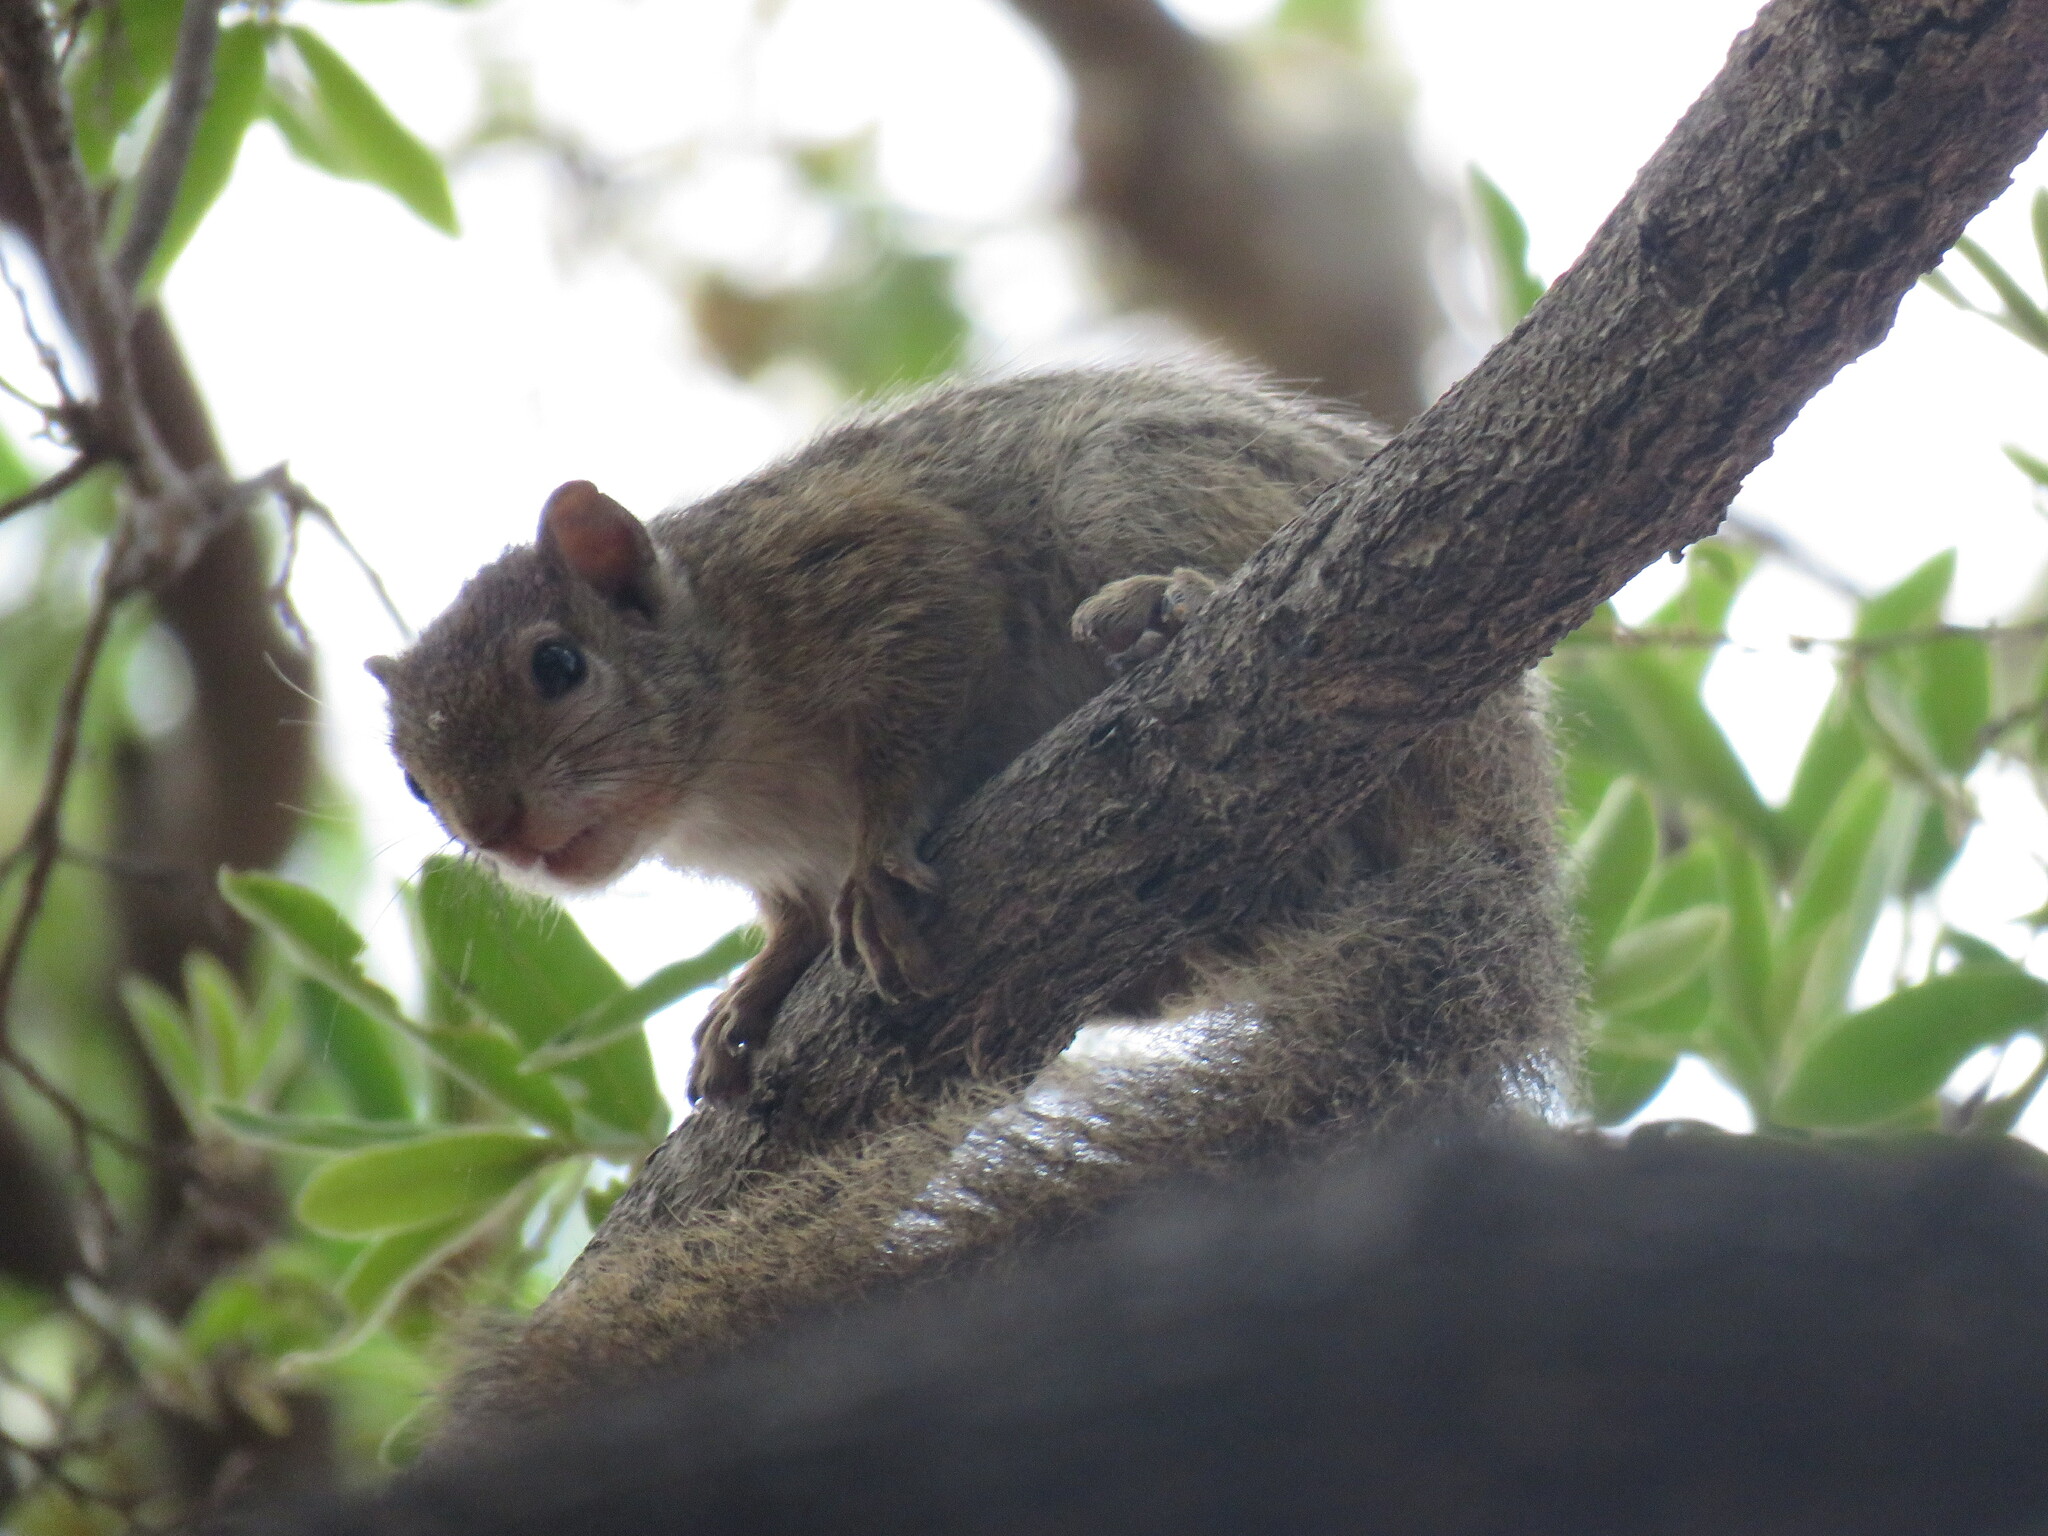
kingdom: Animalia
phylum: Chordata
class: Mammalia
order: Rodentia
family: Sciuridae
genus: Paraxerus
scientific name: Paraxerus cepapi
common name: Smith's bush squirrel
